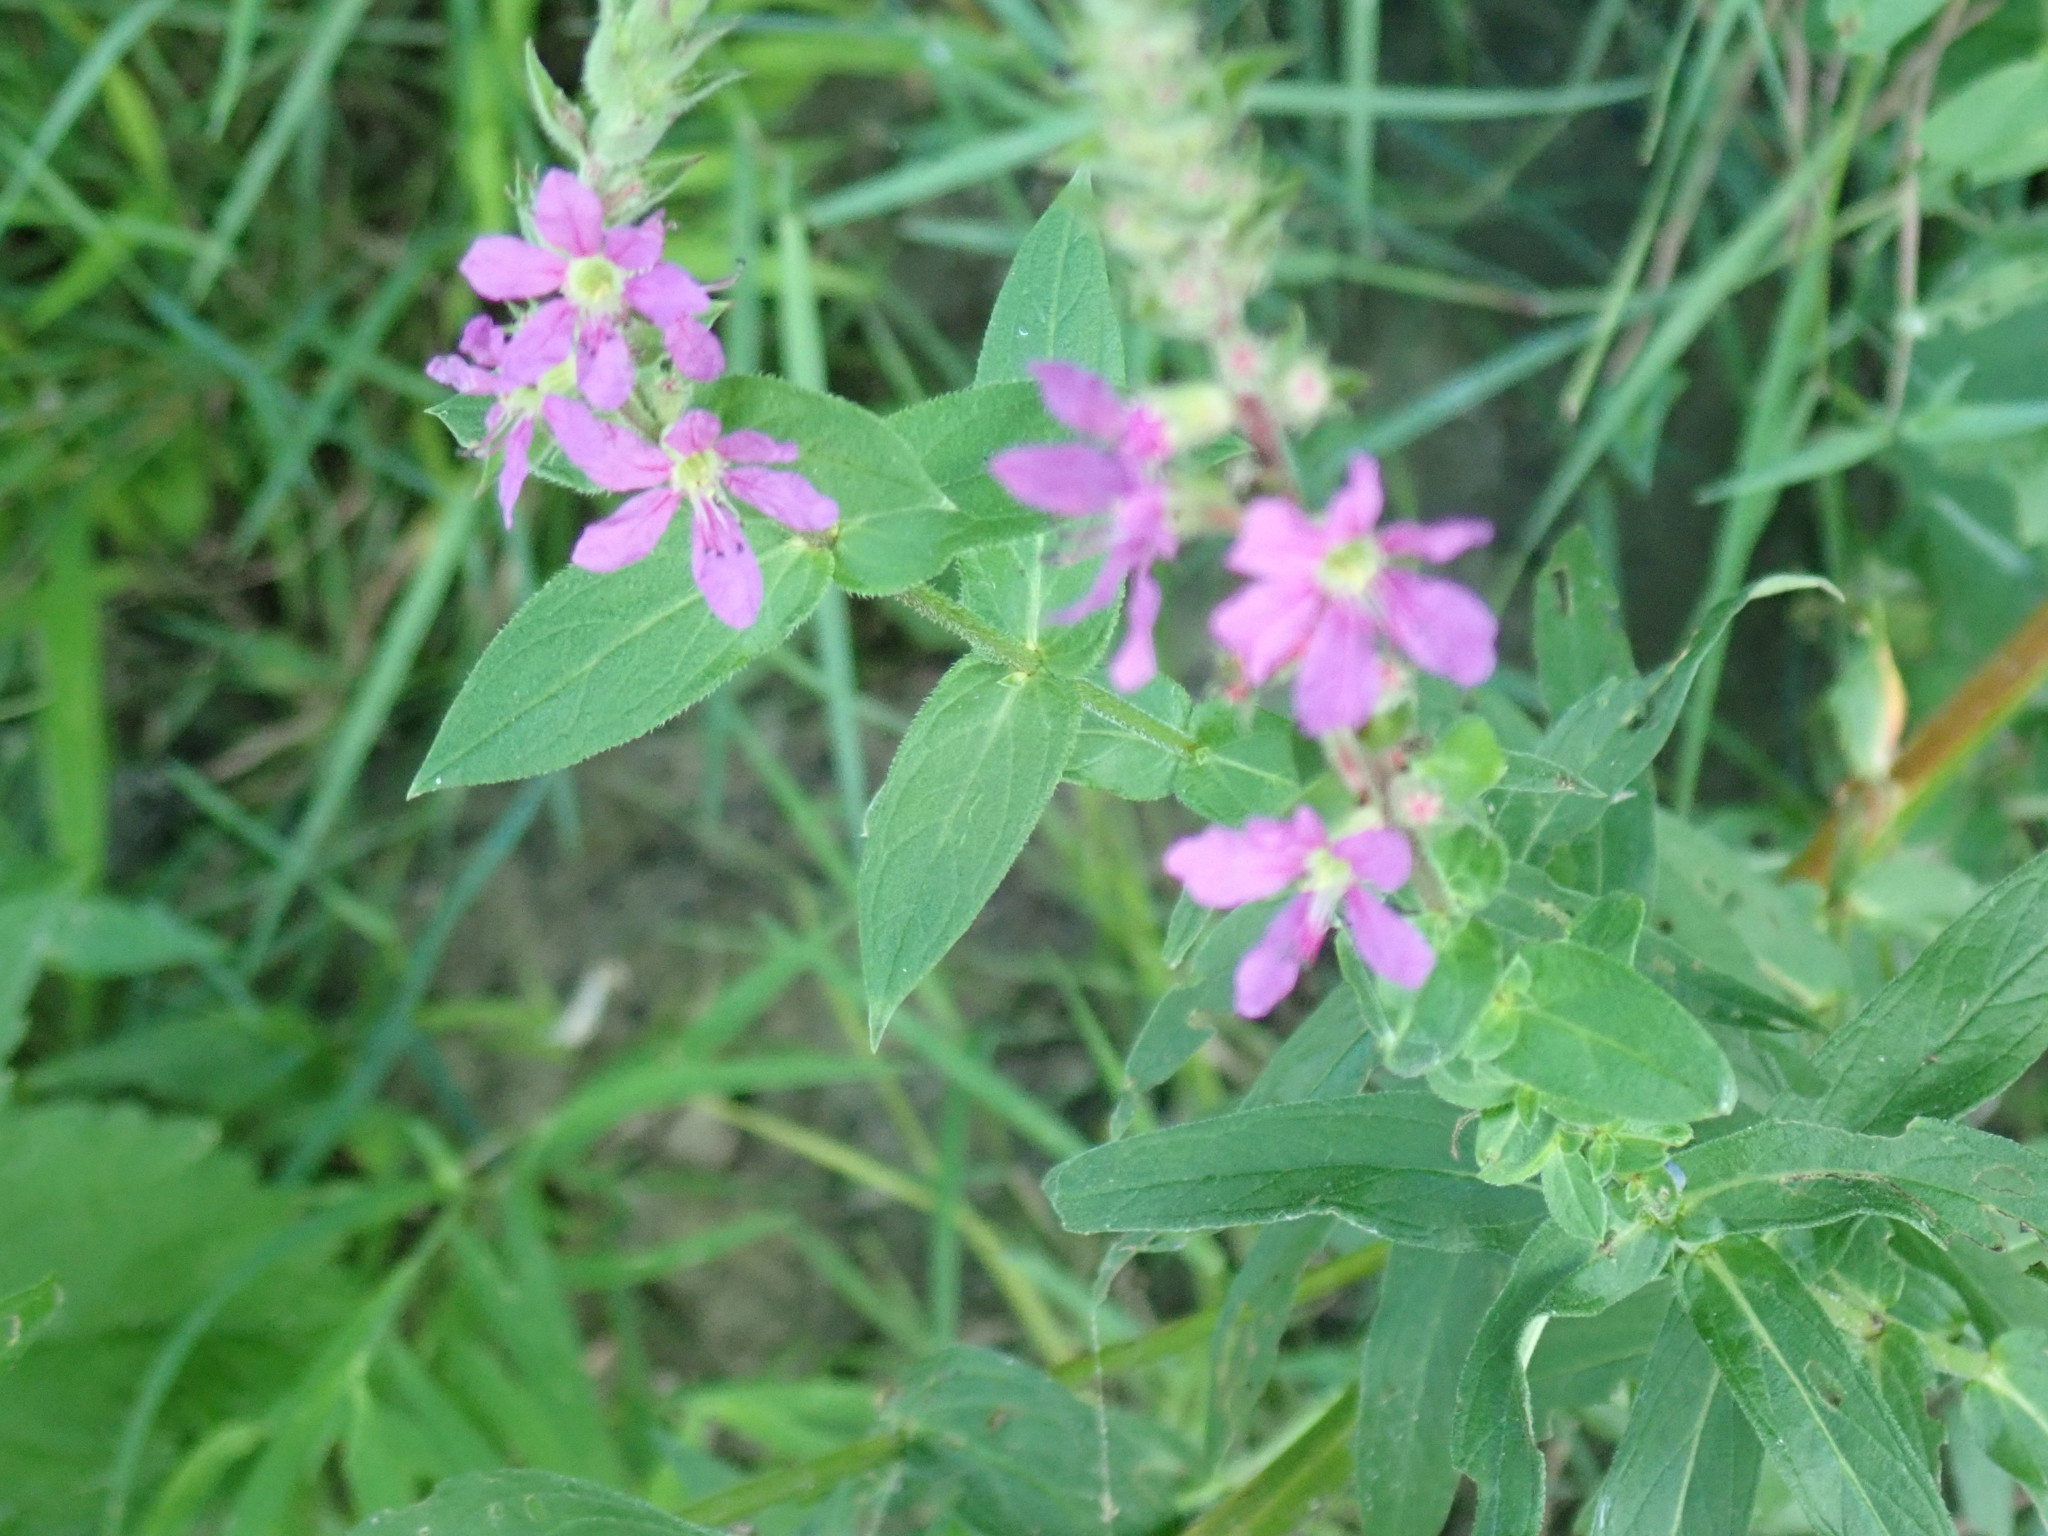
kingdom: Plantae
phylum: Tracheophyta
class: Magnoliopsida
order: Myrtales
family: Lythraceae
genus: Lythrum
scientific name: Lythrum salicaria
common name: Purple loosestrife
